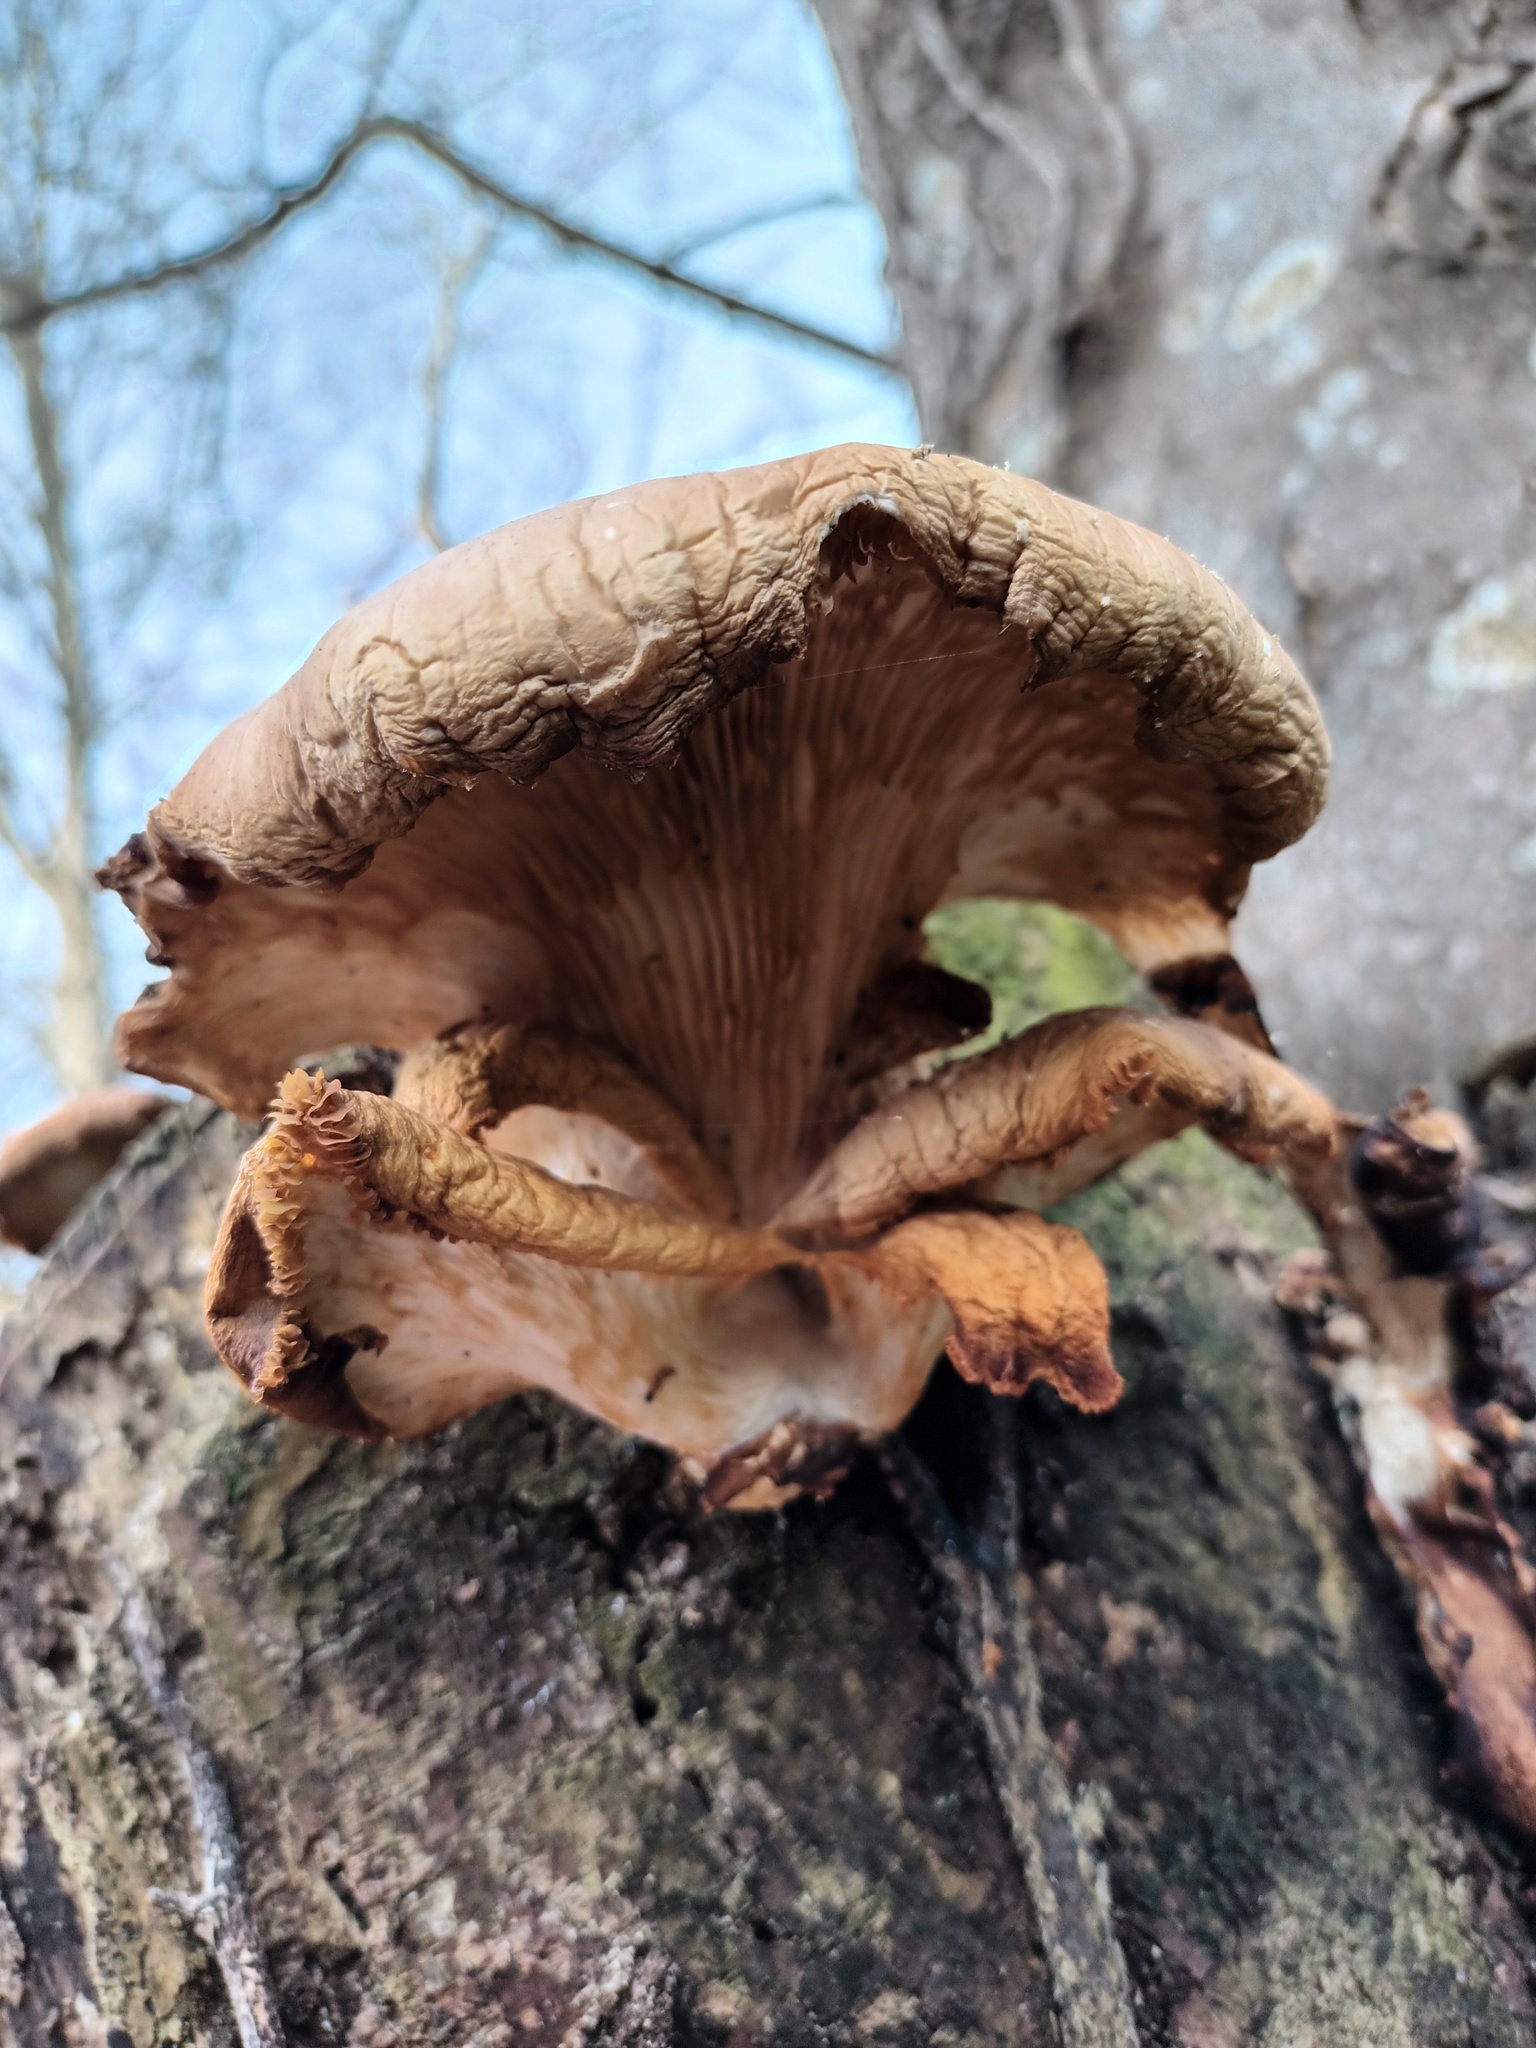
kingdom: Fungi
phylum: Basidiomycota
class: Agaricomycetes
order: Agaricales
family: Pleurotaceae
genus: Pleurotus
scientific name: Pleurotus ostreatus
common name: Oyster mushroom
